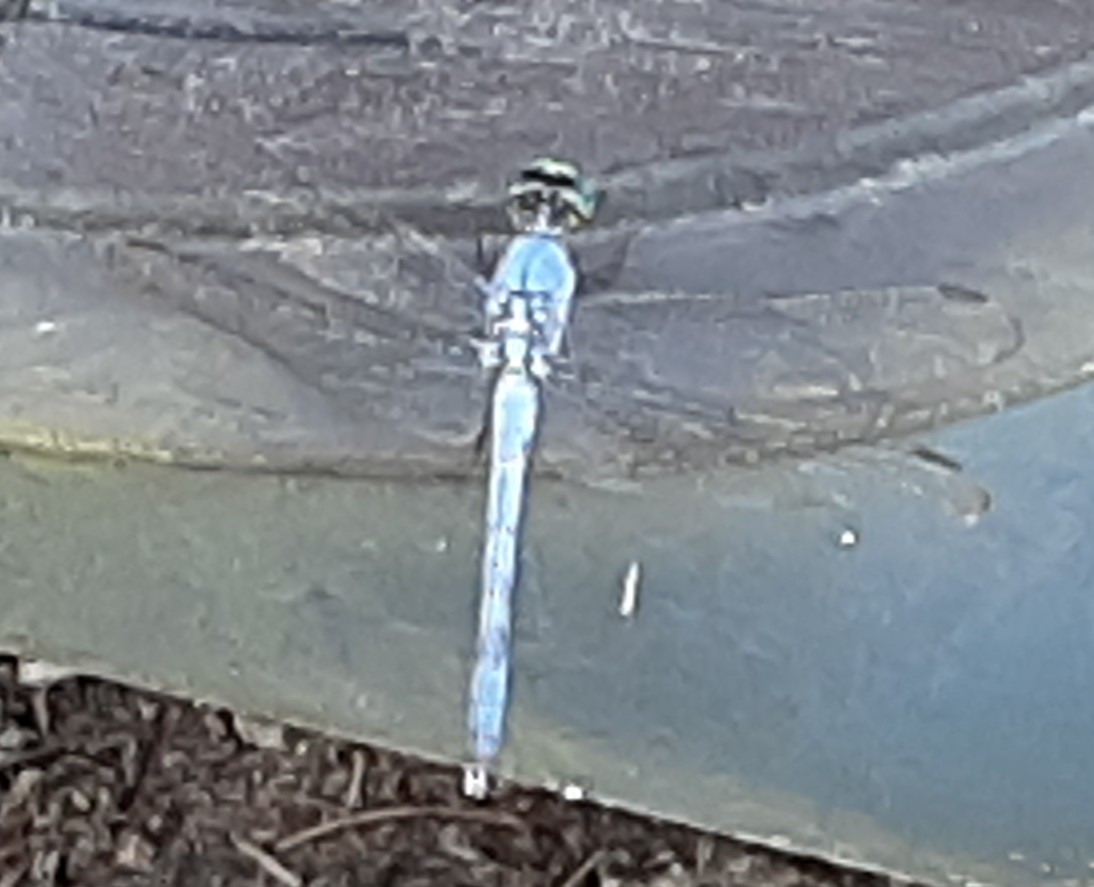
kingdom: Animalia
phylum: Arthropoda
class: Insecta
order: Odonata
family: Libellulidae
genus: Erythemis
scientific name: Erythemis simplicicollis
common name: Eastern pondhawk
